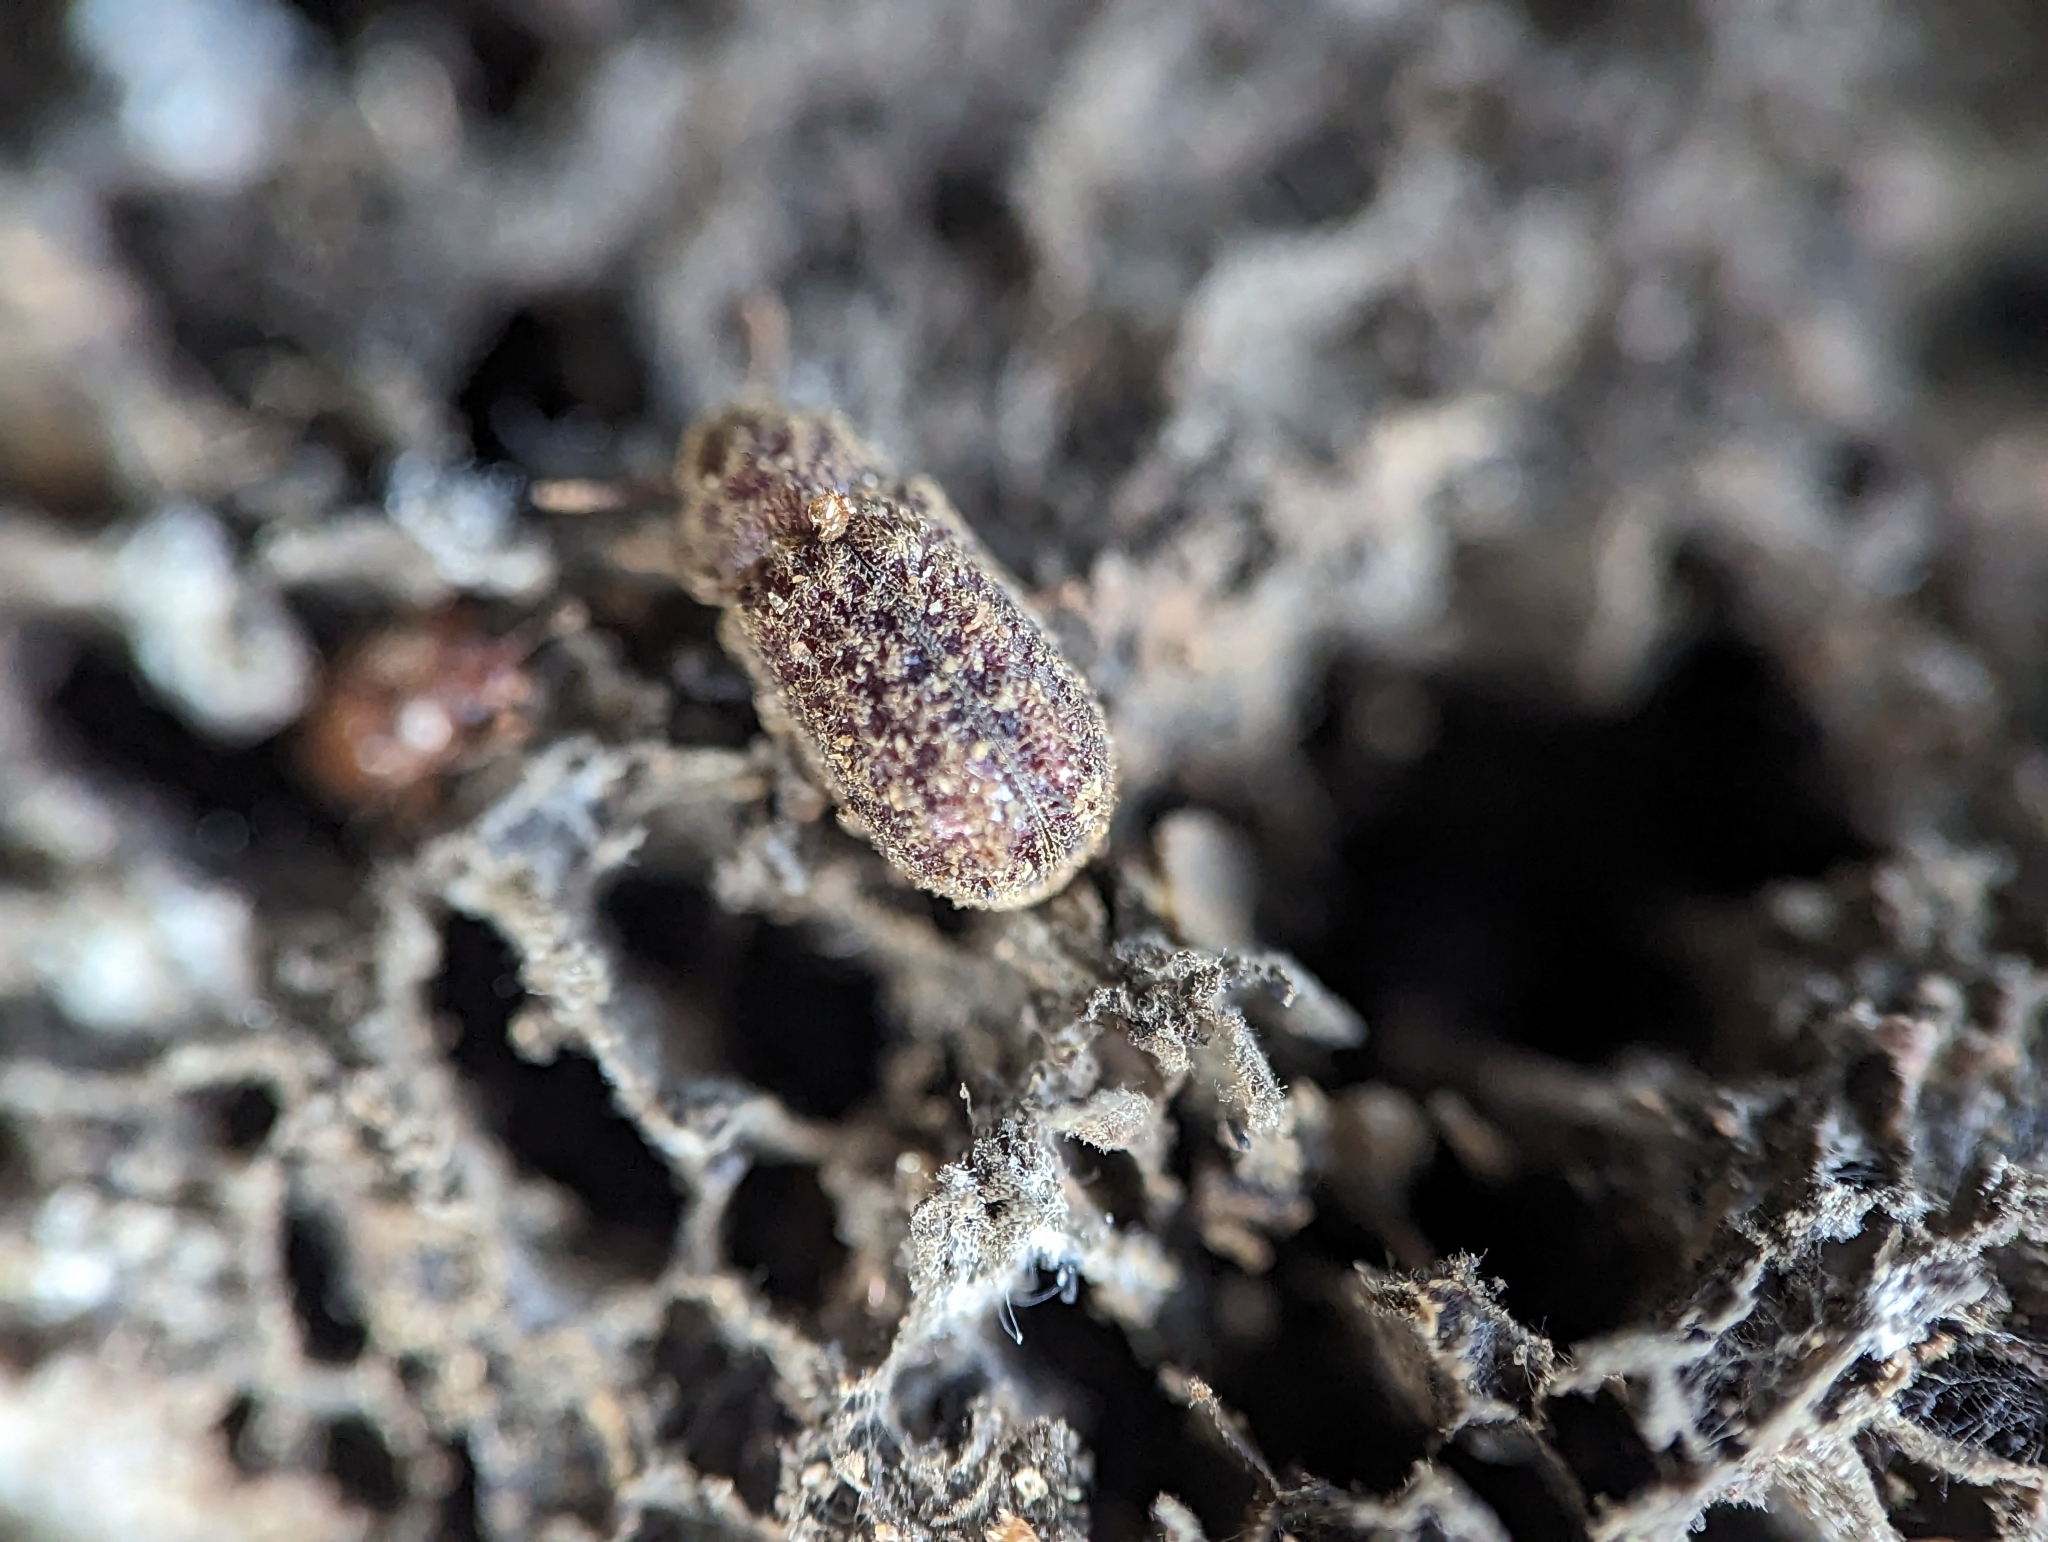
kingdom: Animalia
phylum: Arthropoda
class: Insecta
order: Coleoptera
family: Bostrichidae
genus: Endecatomus
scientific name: Endecatomus rugosus
